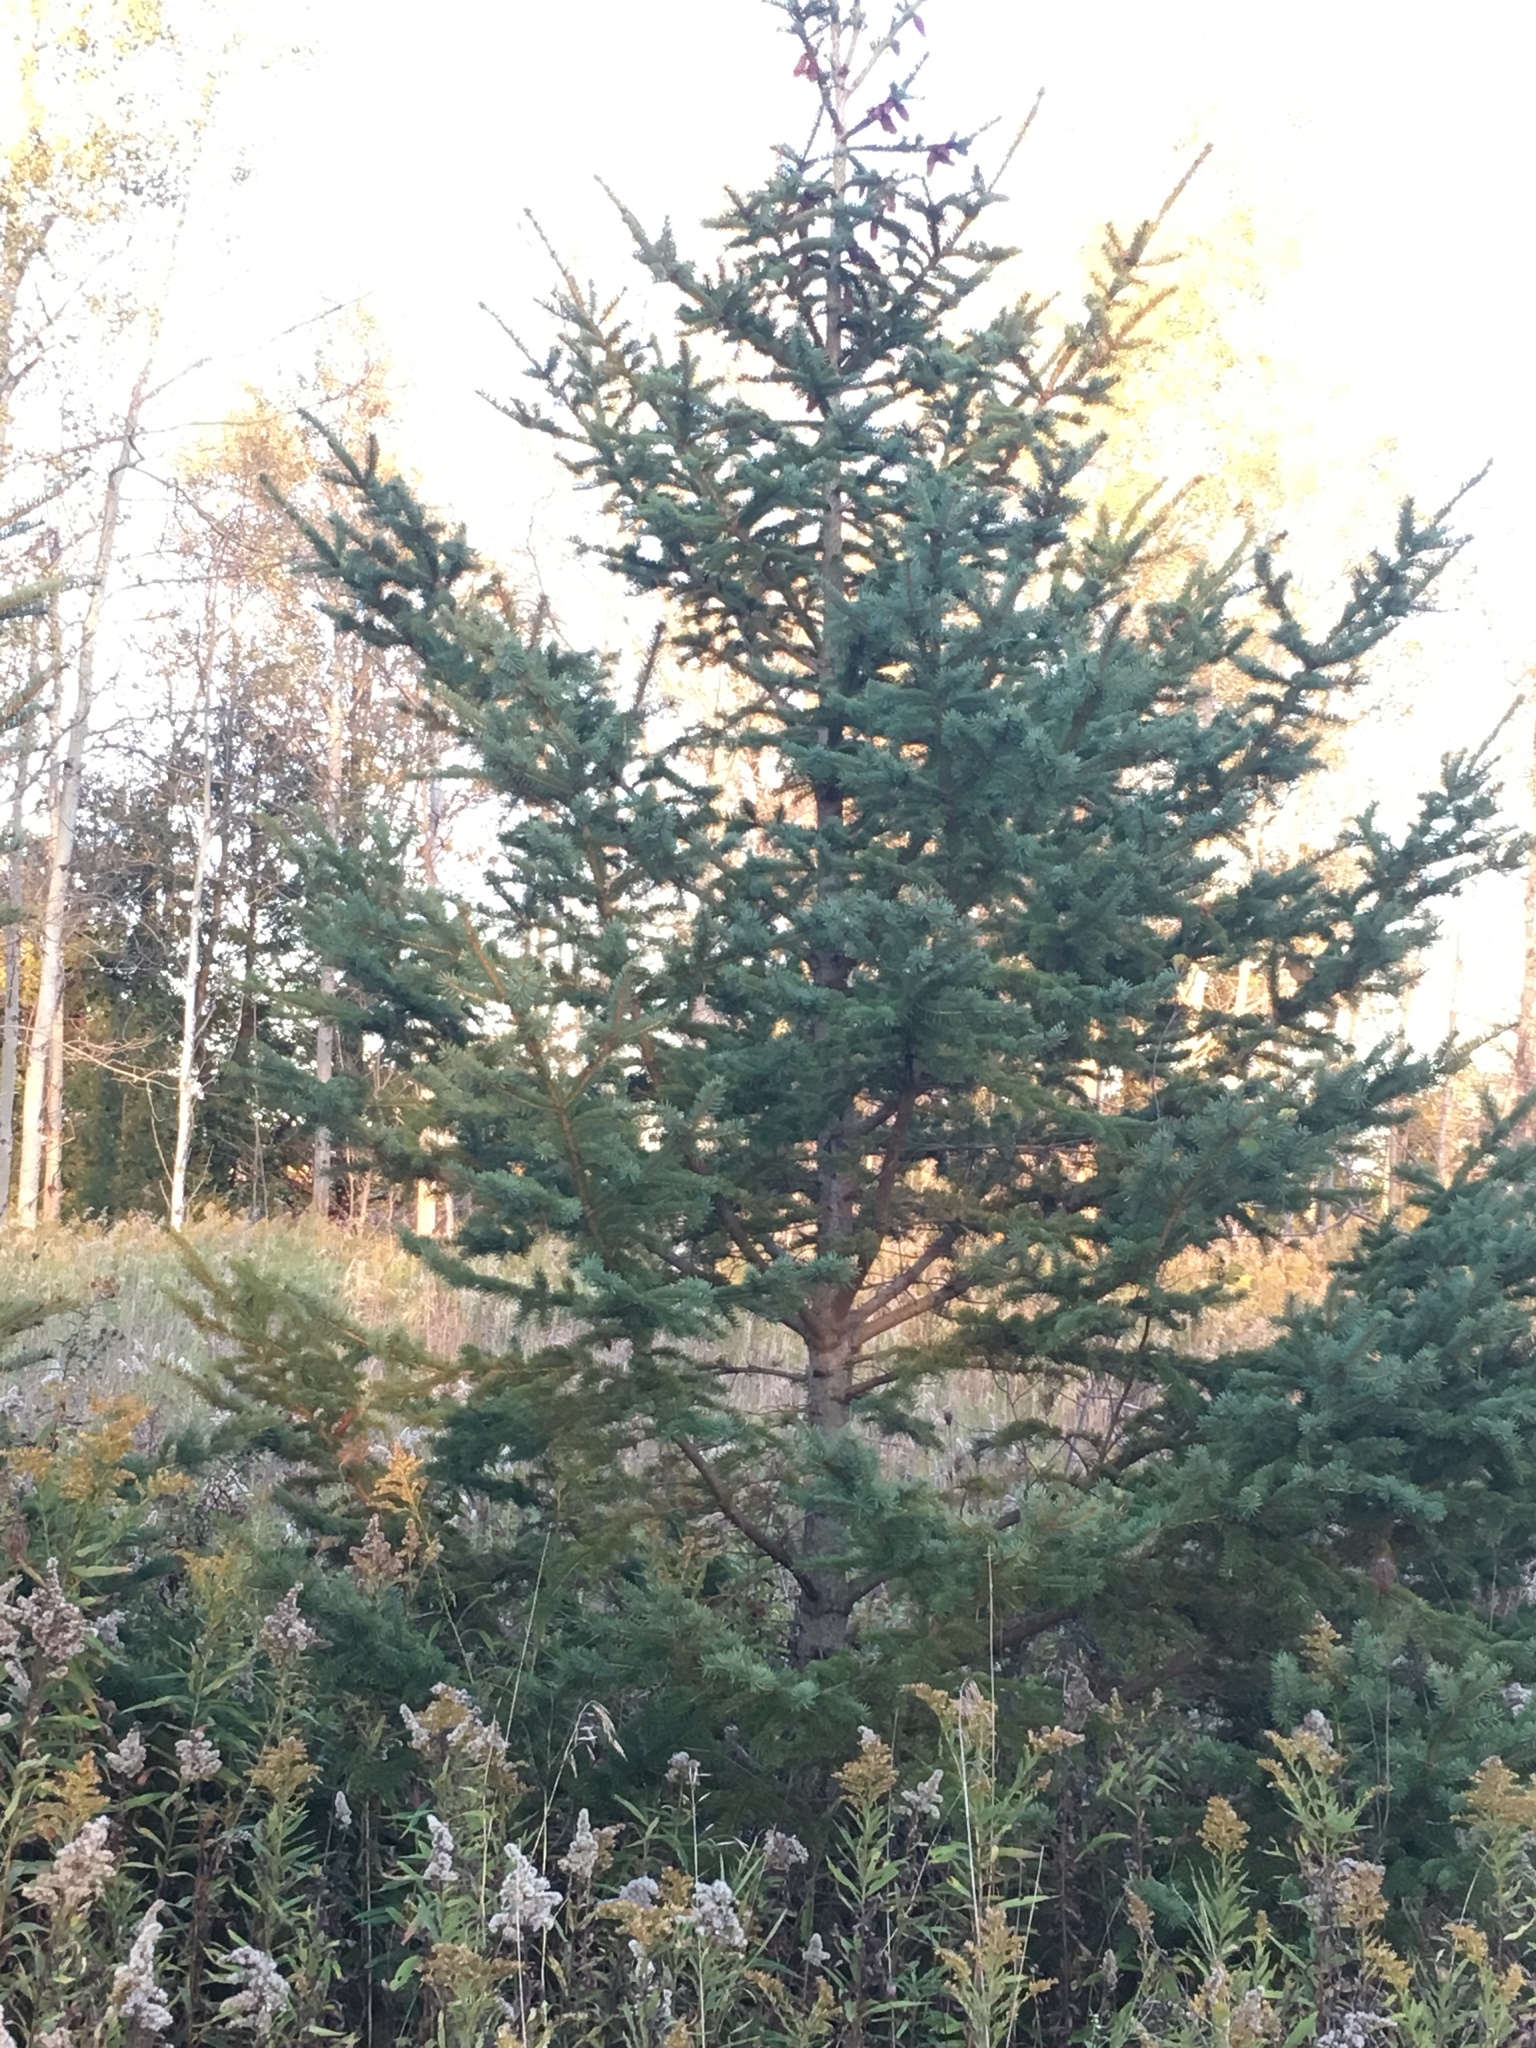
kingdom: Plantae
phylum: Tracheophyta
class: Pinopsida
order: Pinales
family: Pinaceae
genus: Picea
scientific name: Picea glauca
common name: White spruce
